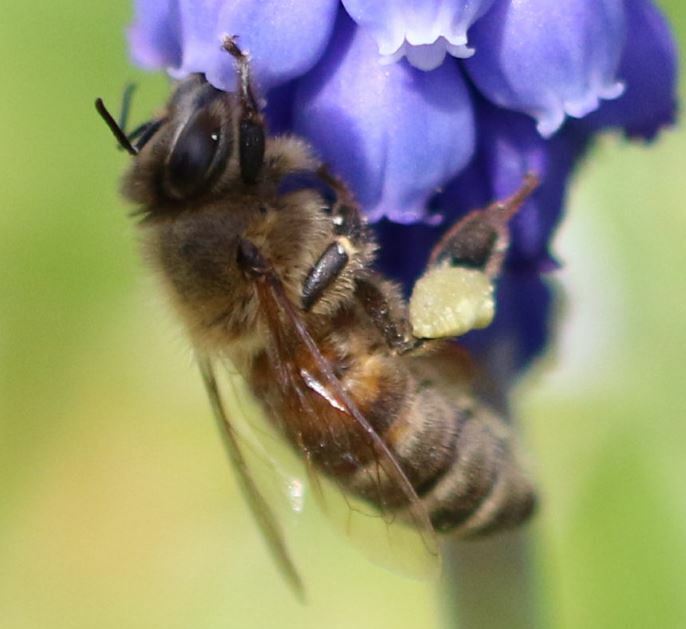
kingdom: Animalia
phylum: Arthropoda
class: Insecta
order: Hymenoptera
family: Apidae
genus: Apis
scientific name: Apis mellifera
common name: Honey bee
